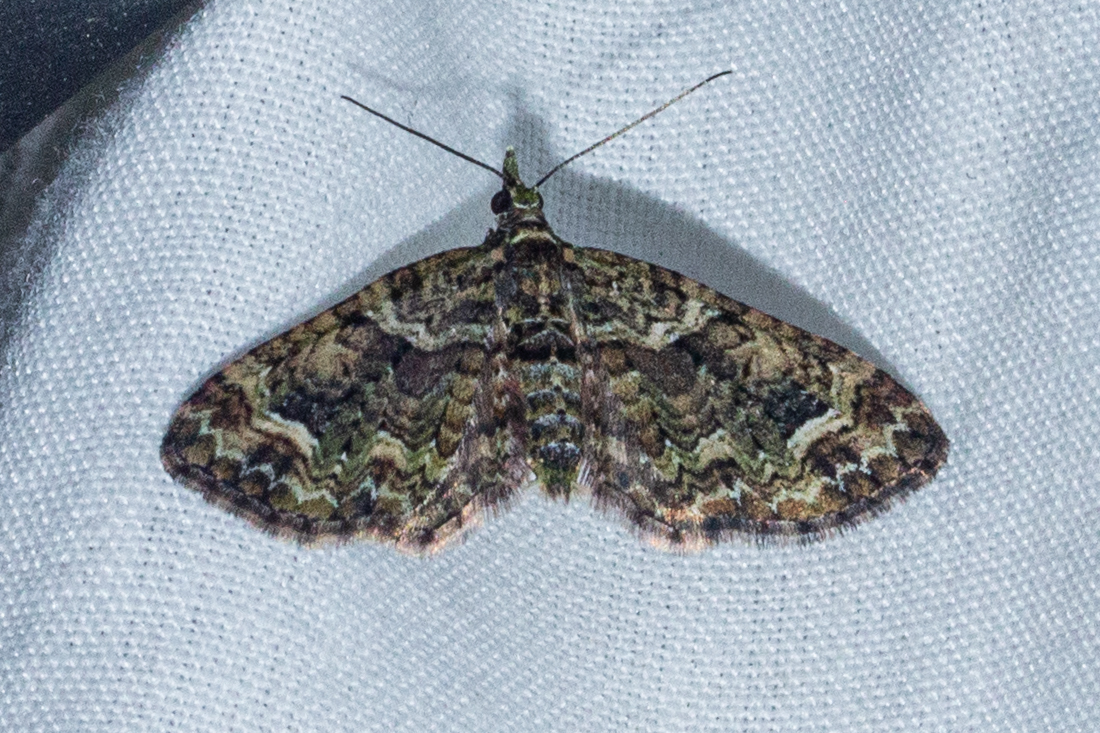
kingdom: Animalia
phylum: Arthropoda
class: Insecta
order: Lepidoptera
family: Geometridae
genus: Idaea
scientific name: Idaea mutanda
